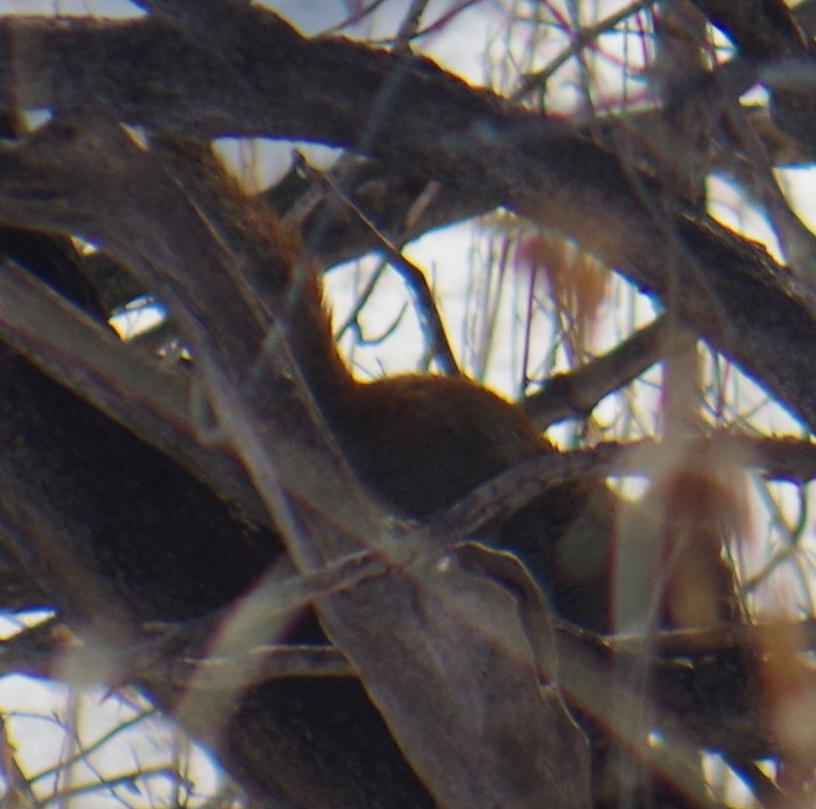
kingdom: Animalia
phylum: Chordata
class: Mammalia
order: Rodentia
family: Sciuridae
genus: Tamiasciurus
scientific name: Tamiasciurus hudsonicus
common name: Red squirrel
